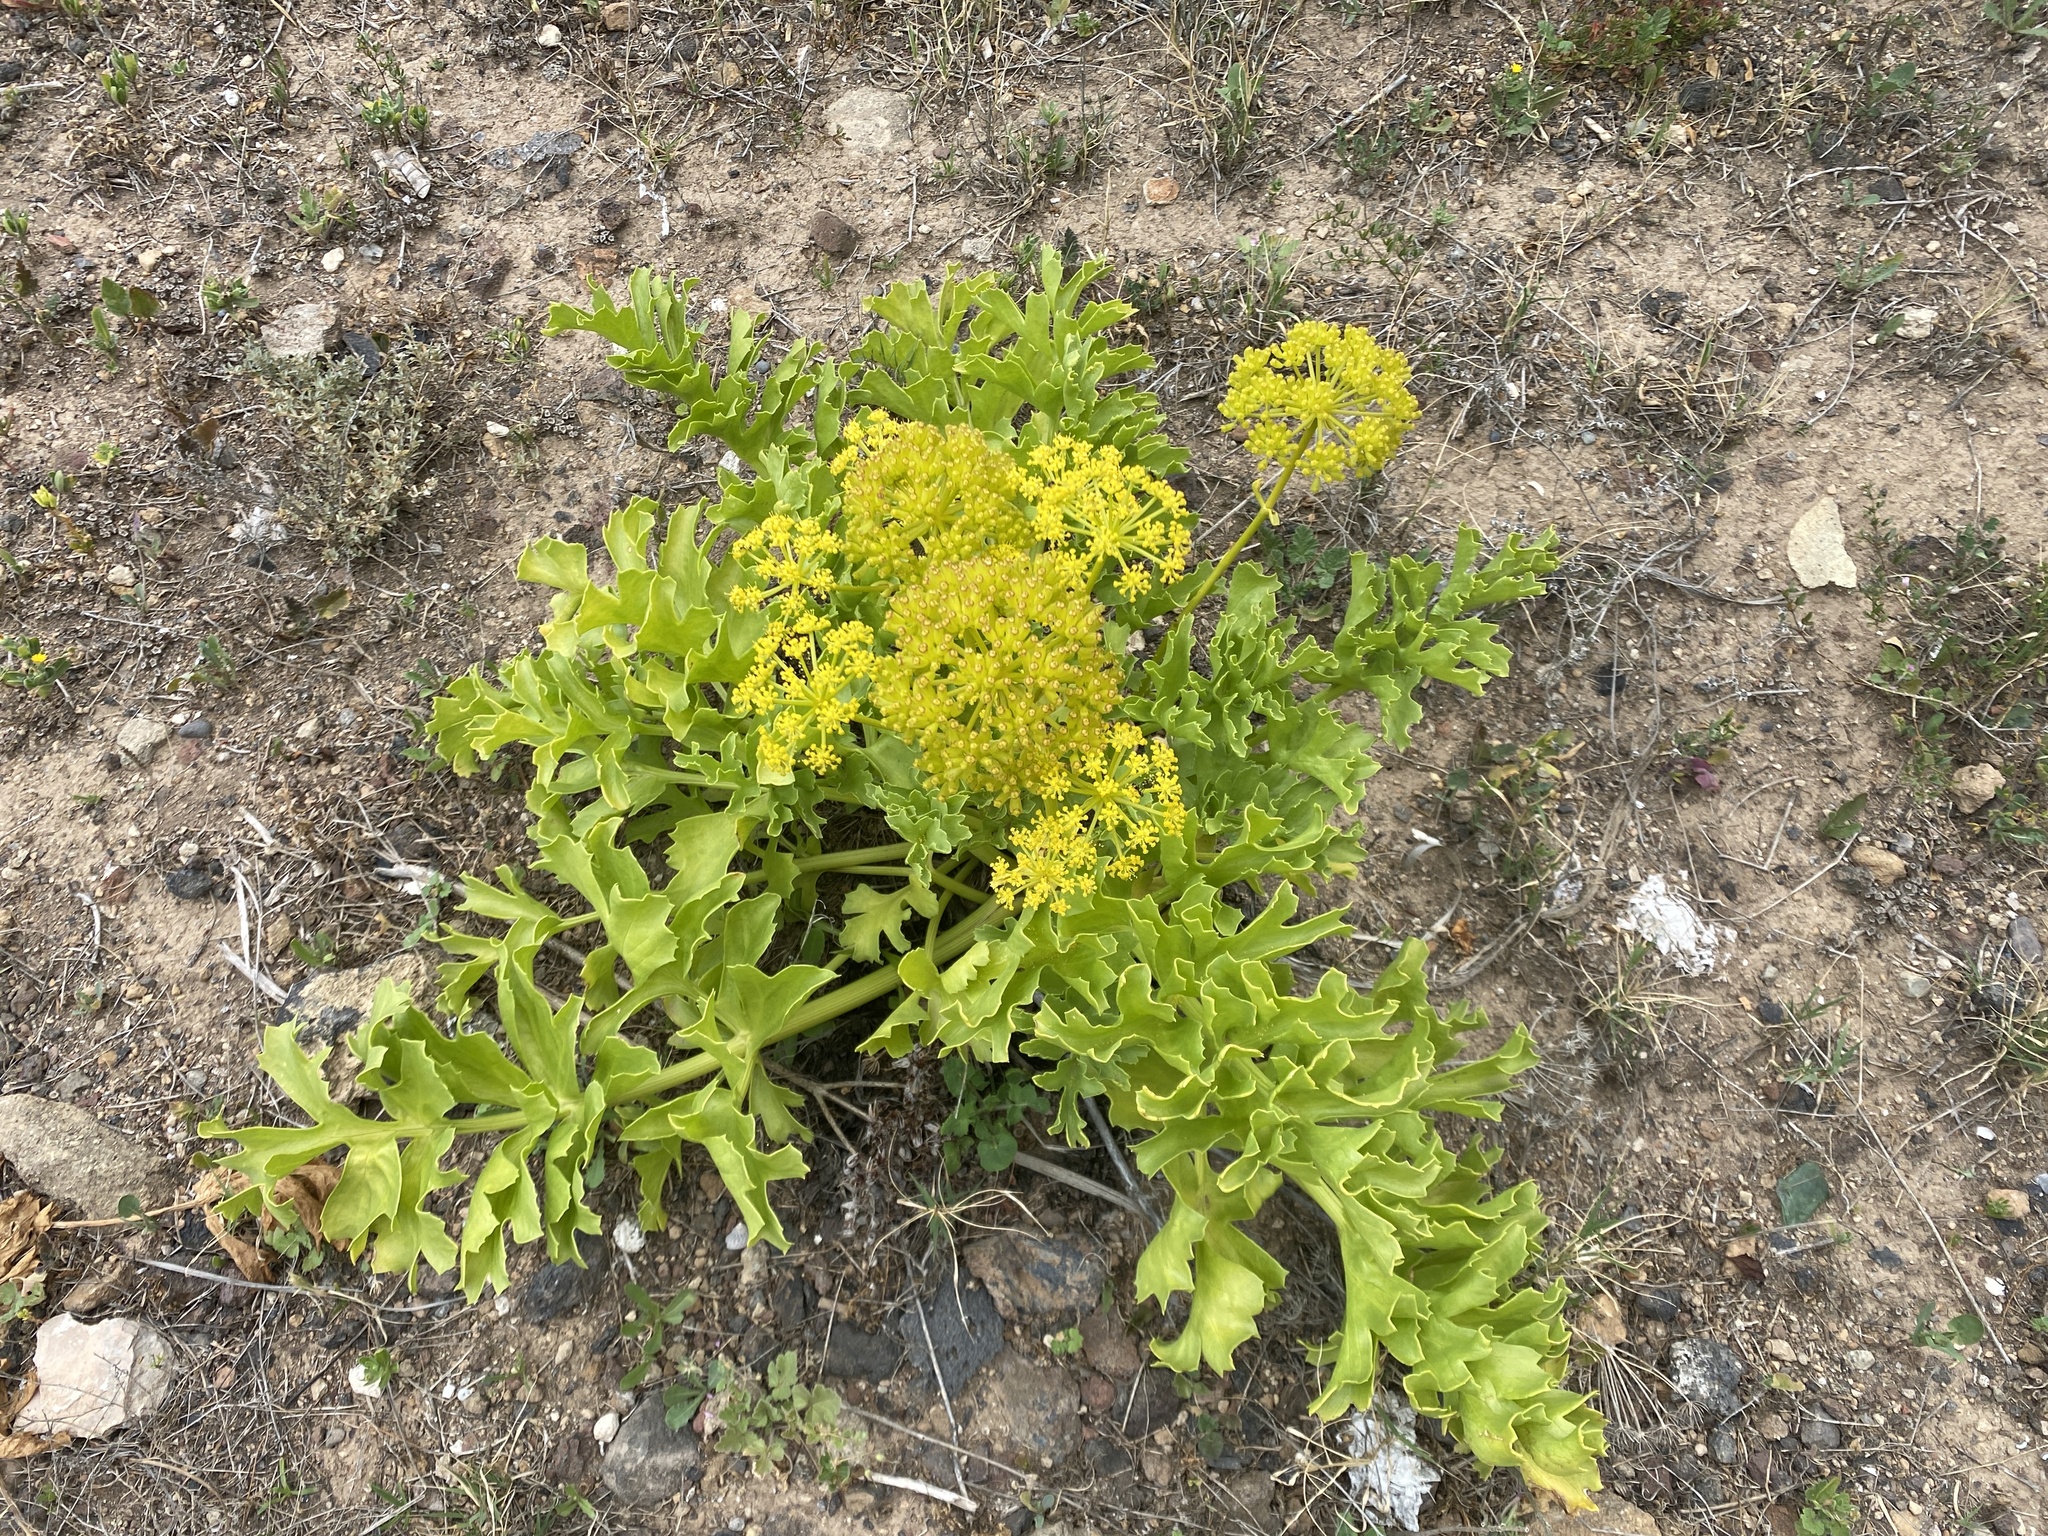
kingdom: Plantae
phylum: Tracheophyta
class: Magnoliopsida
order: Apiales
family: Apiaceae
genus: Astydamia
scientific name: Astydamia latifolia
